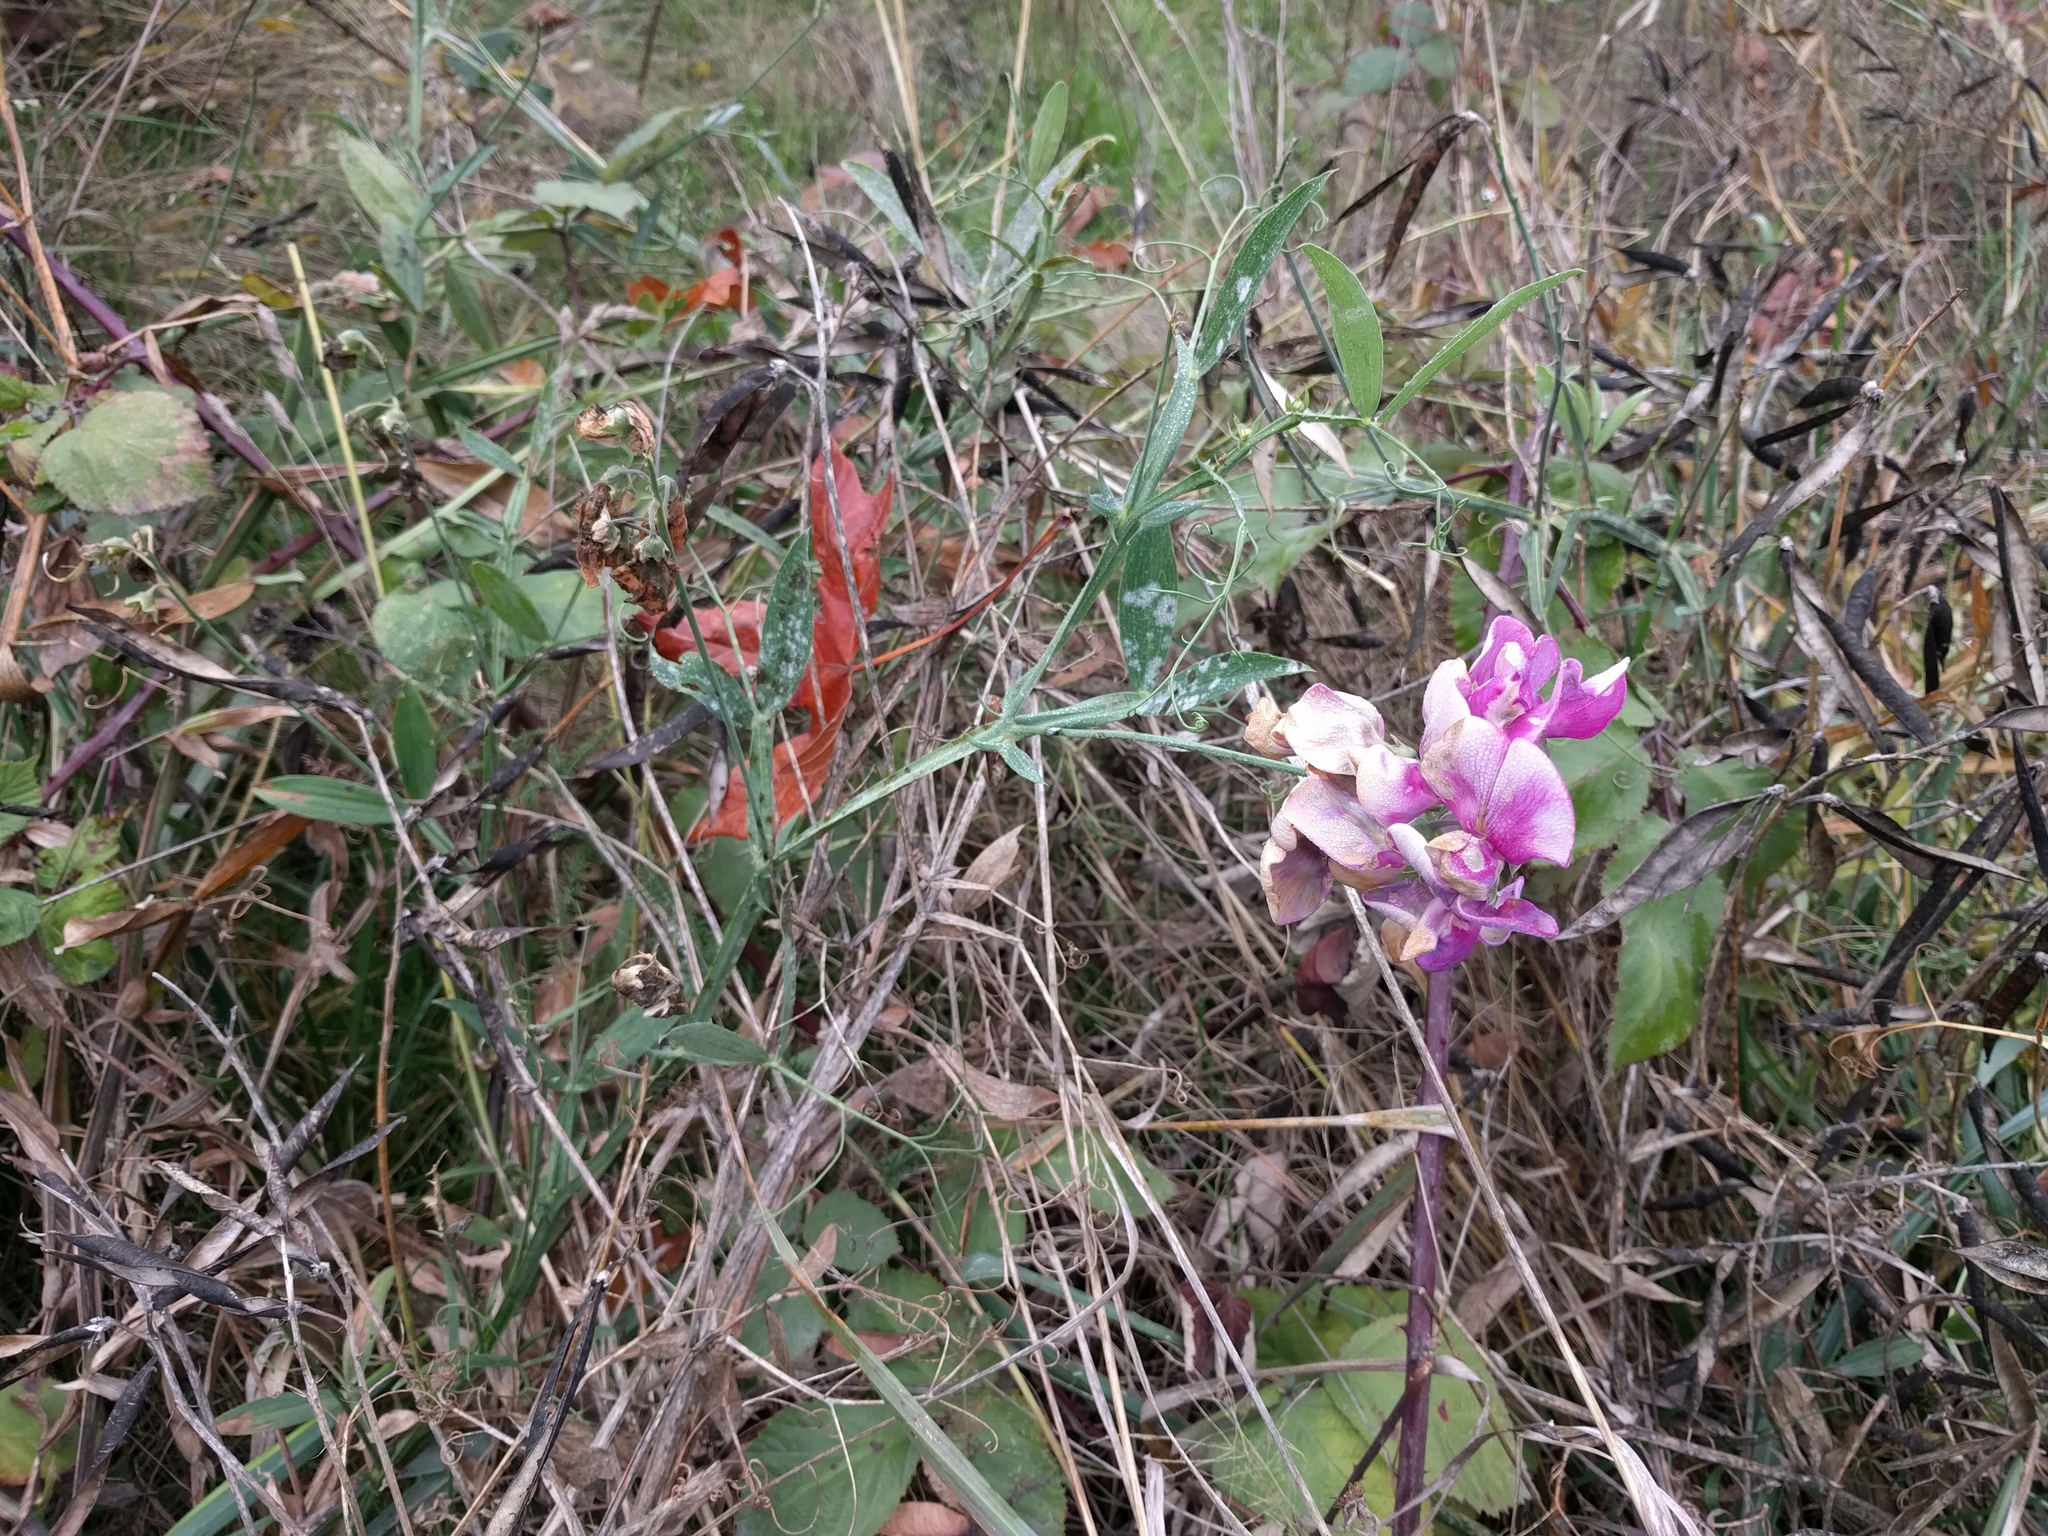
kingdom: Plantae
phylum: Tracheophyta
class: Magnoliopsida
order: Fabales
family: Fabaceae
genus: Lathyrus
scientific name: Lathyrus latifolius
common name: Perennial pea
